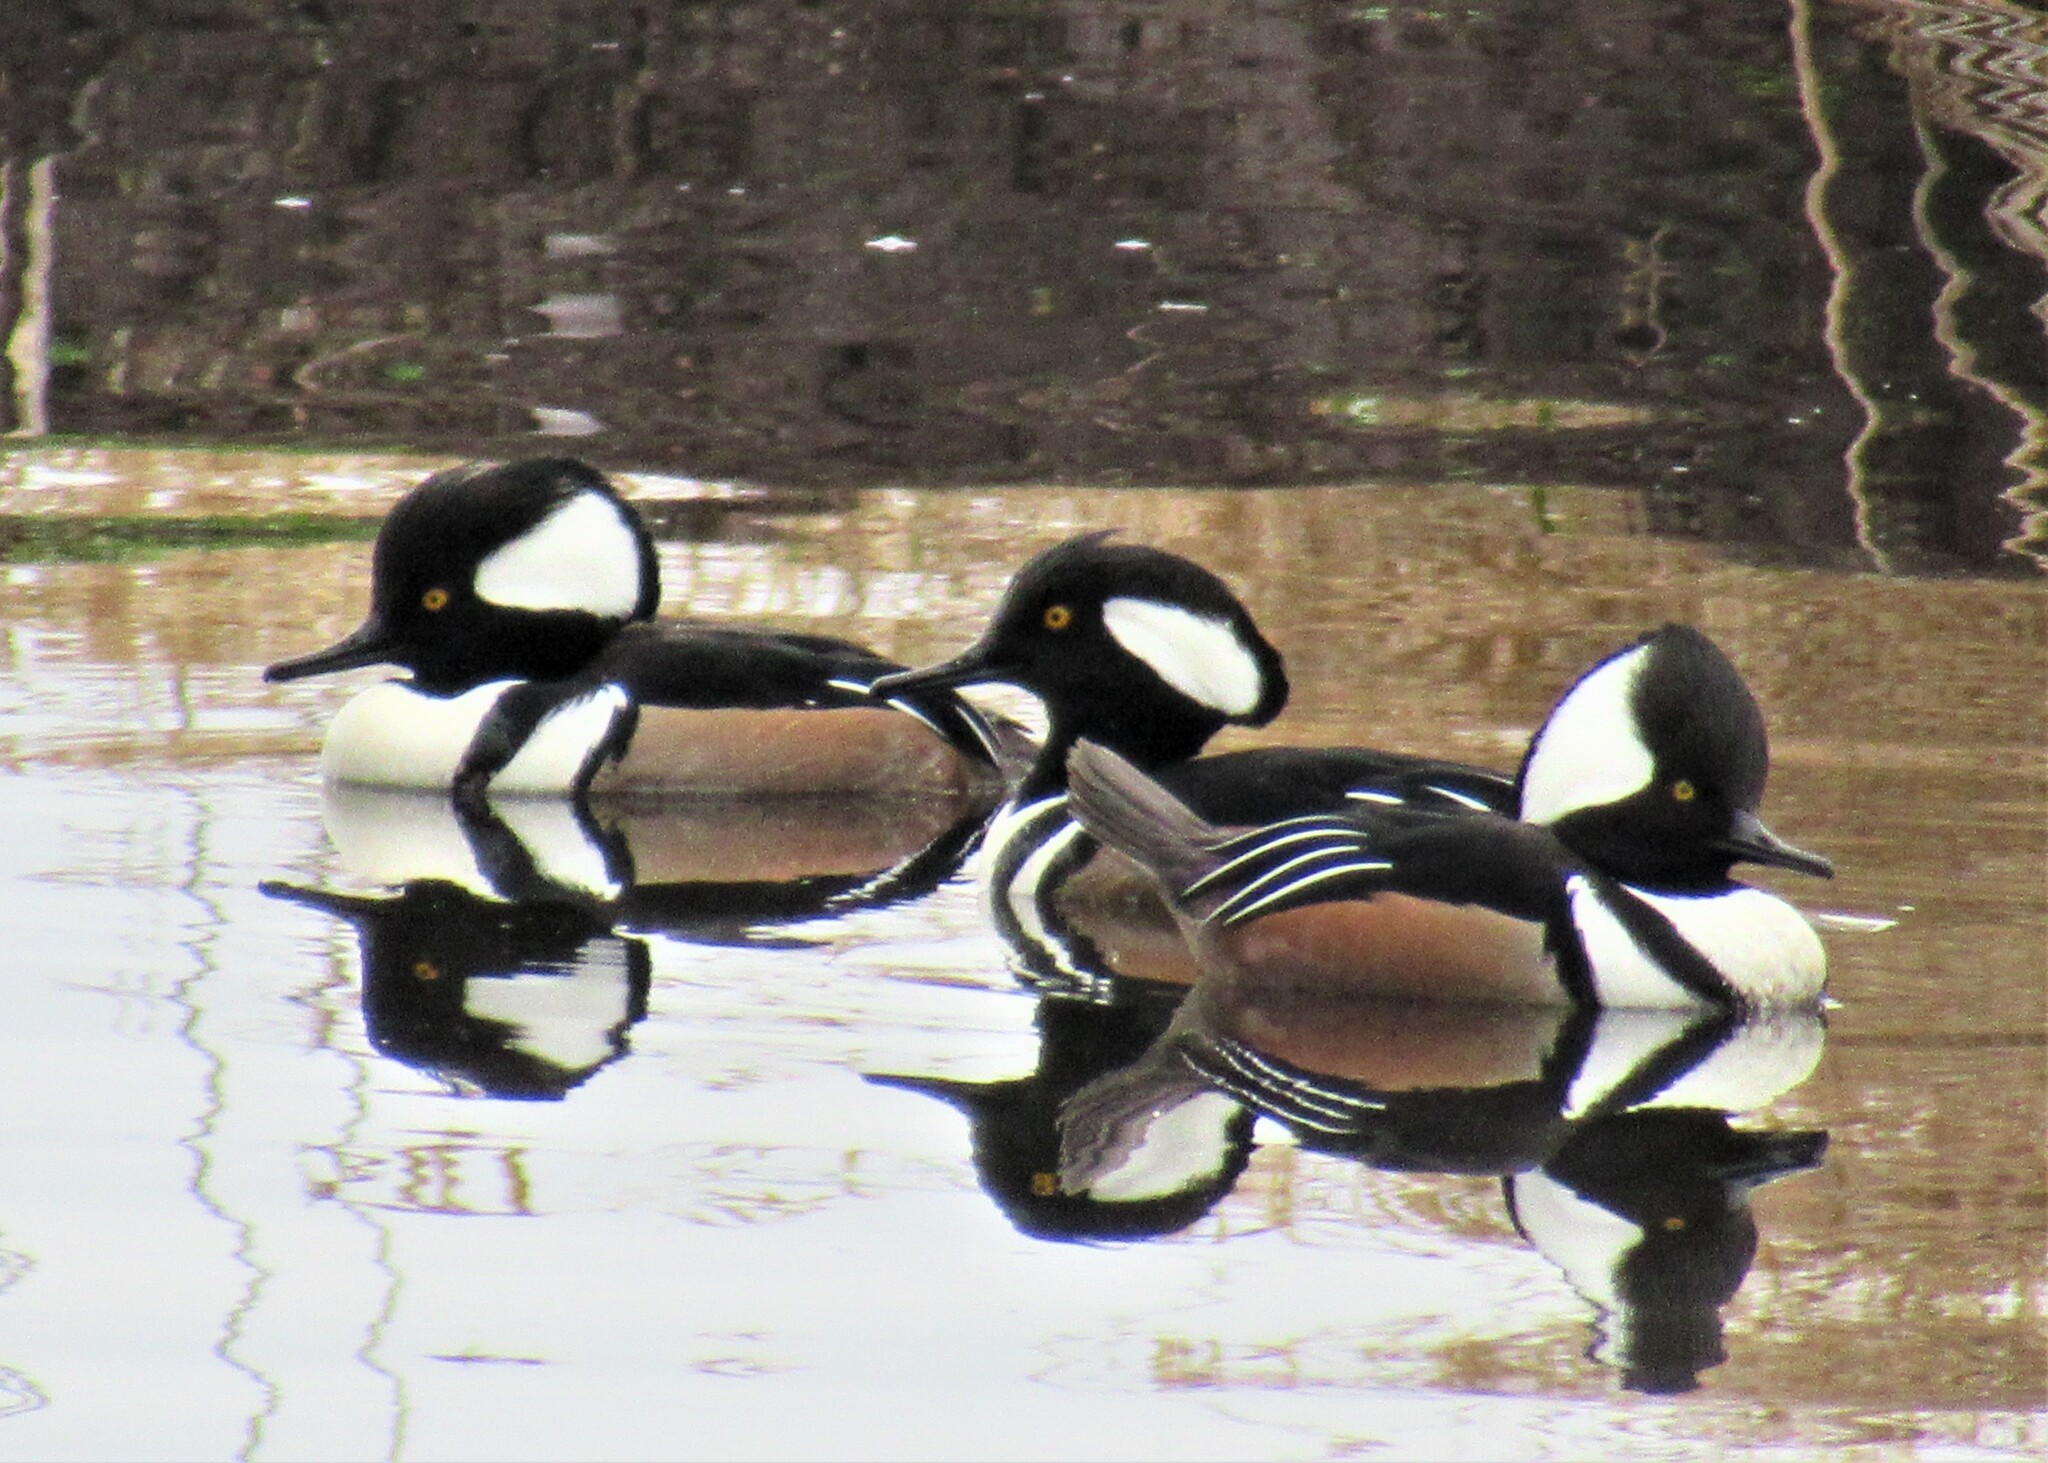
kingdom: Animalia
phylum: Chordata
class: Aves
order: Anseriformes
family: Anatidae
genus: Lophodytes
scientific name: Lophodytes cucullatus
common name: Hooded merganser
